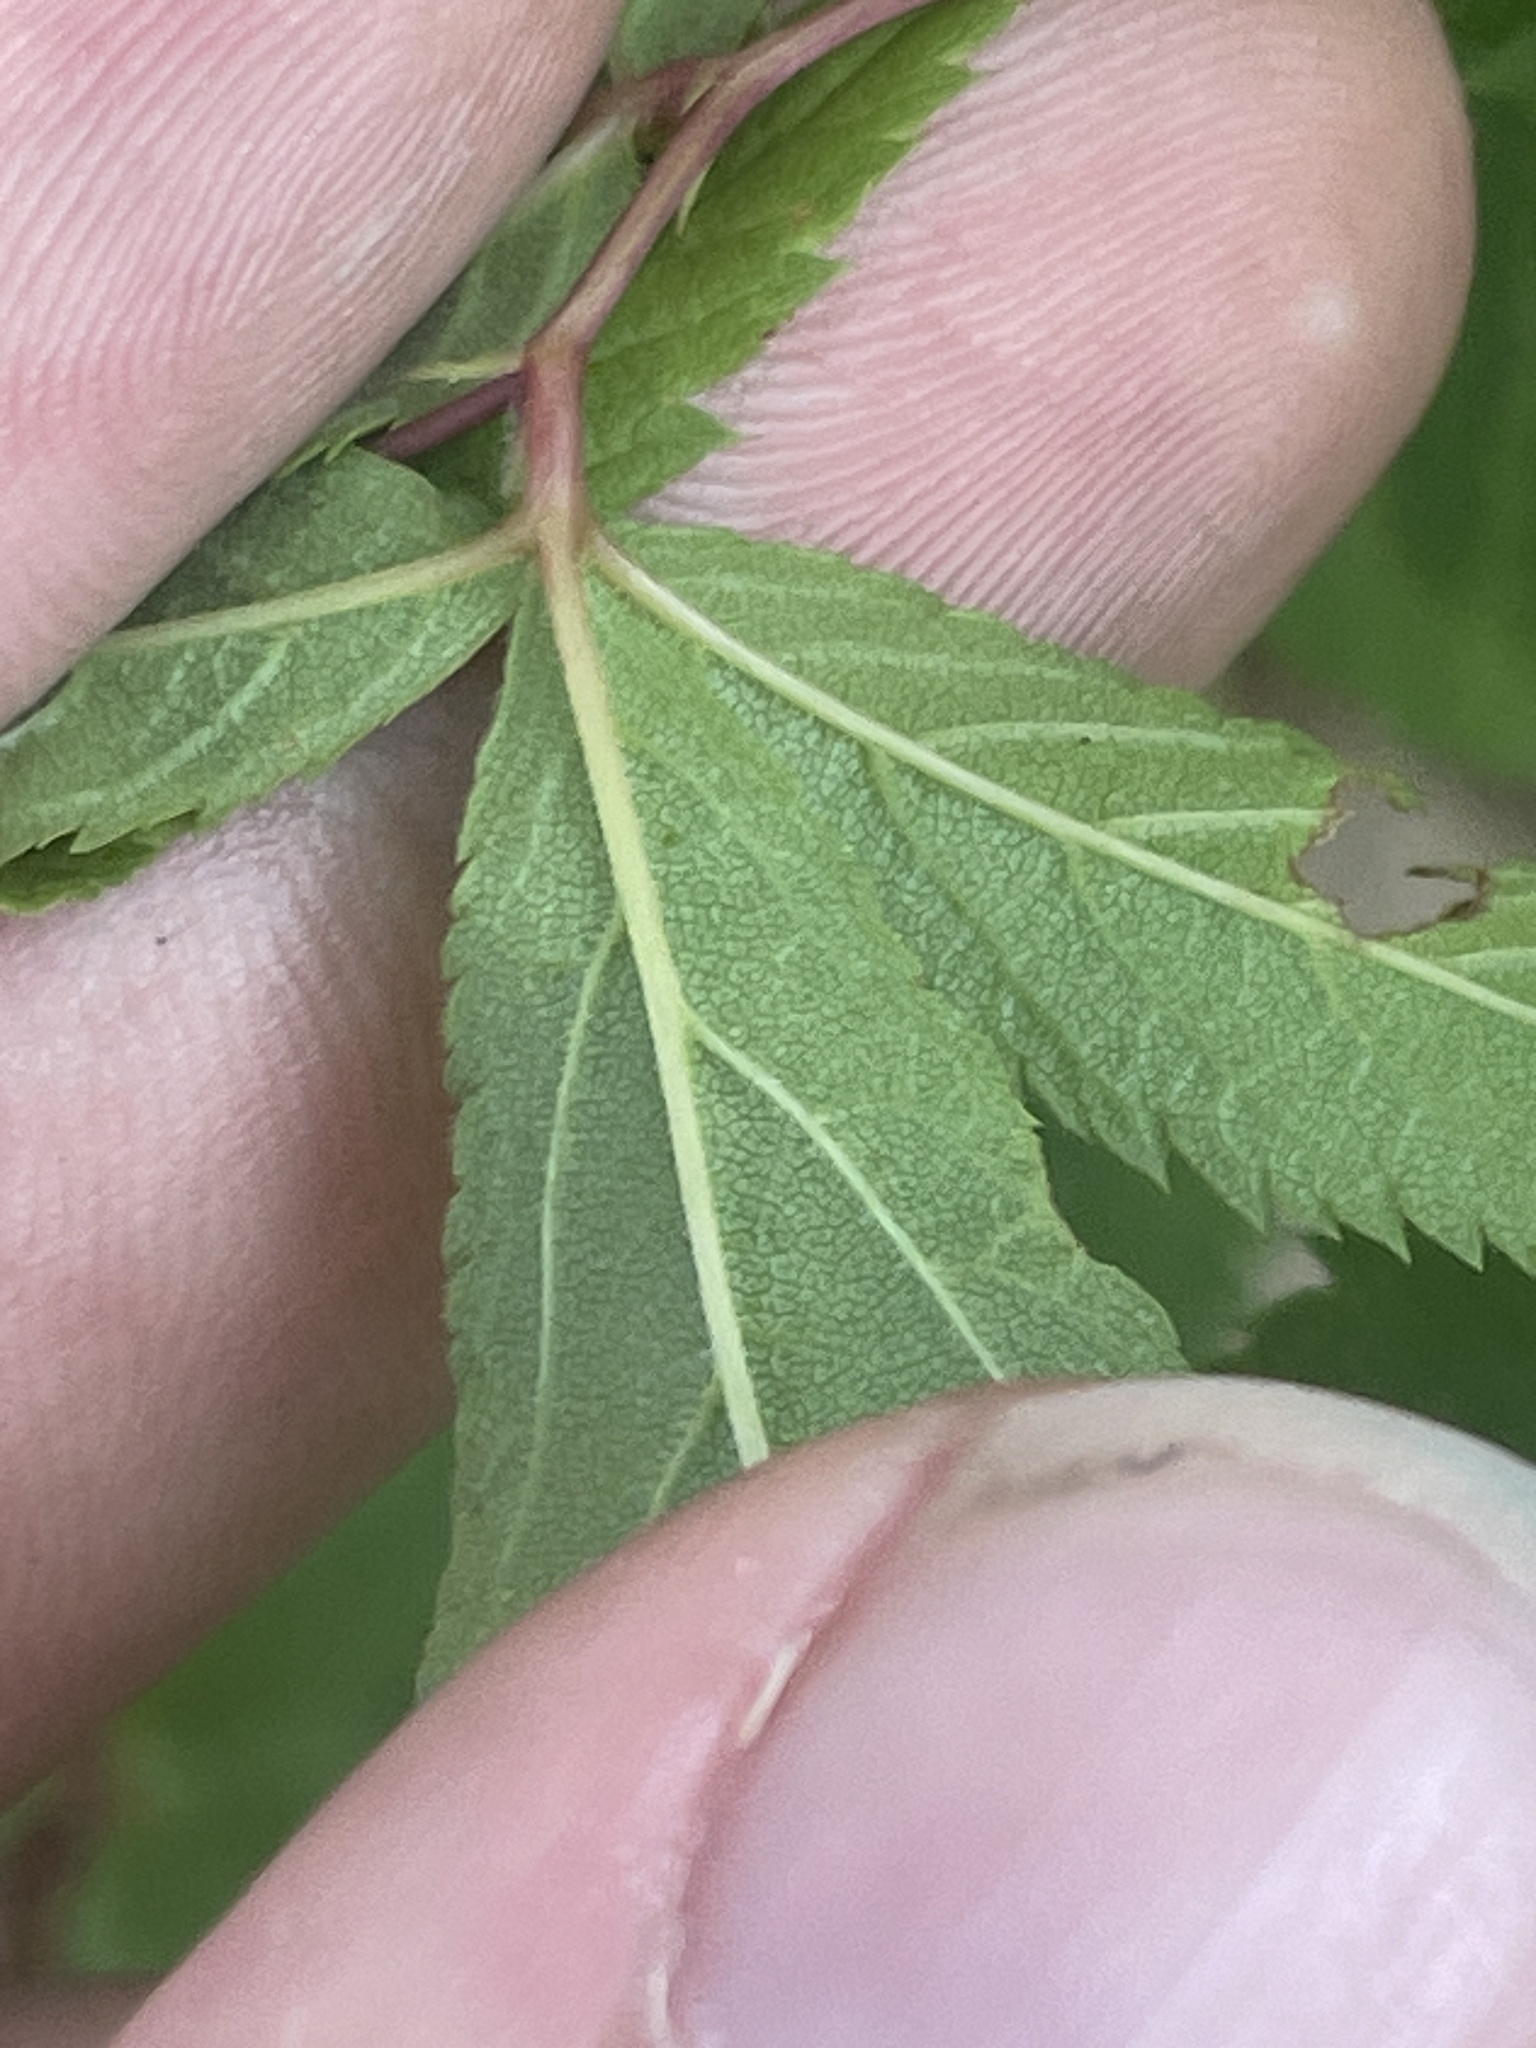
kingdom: Plantae
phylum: Tracheophyta
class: Magnoliopsida
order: Rosales
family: Rosaceae
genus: Gillenia
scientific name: Gillenia trifoliata
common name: Bowman's-root
